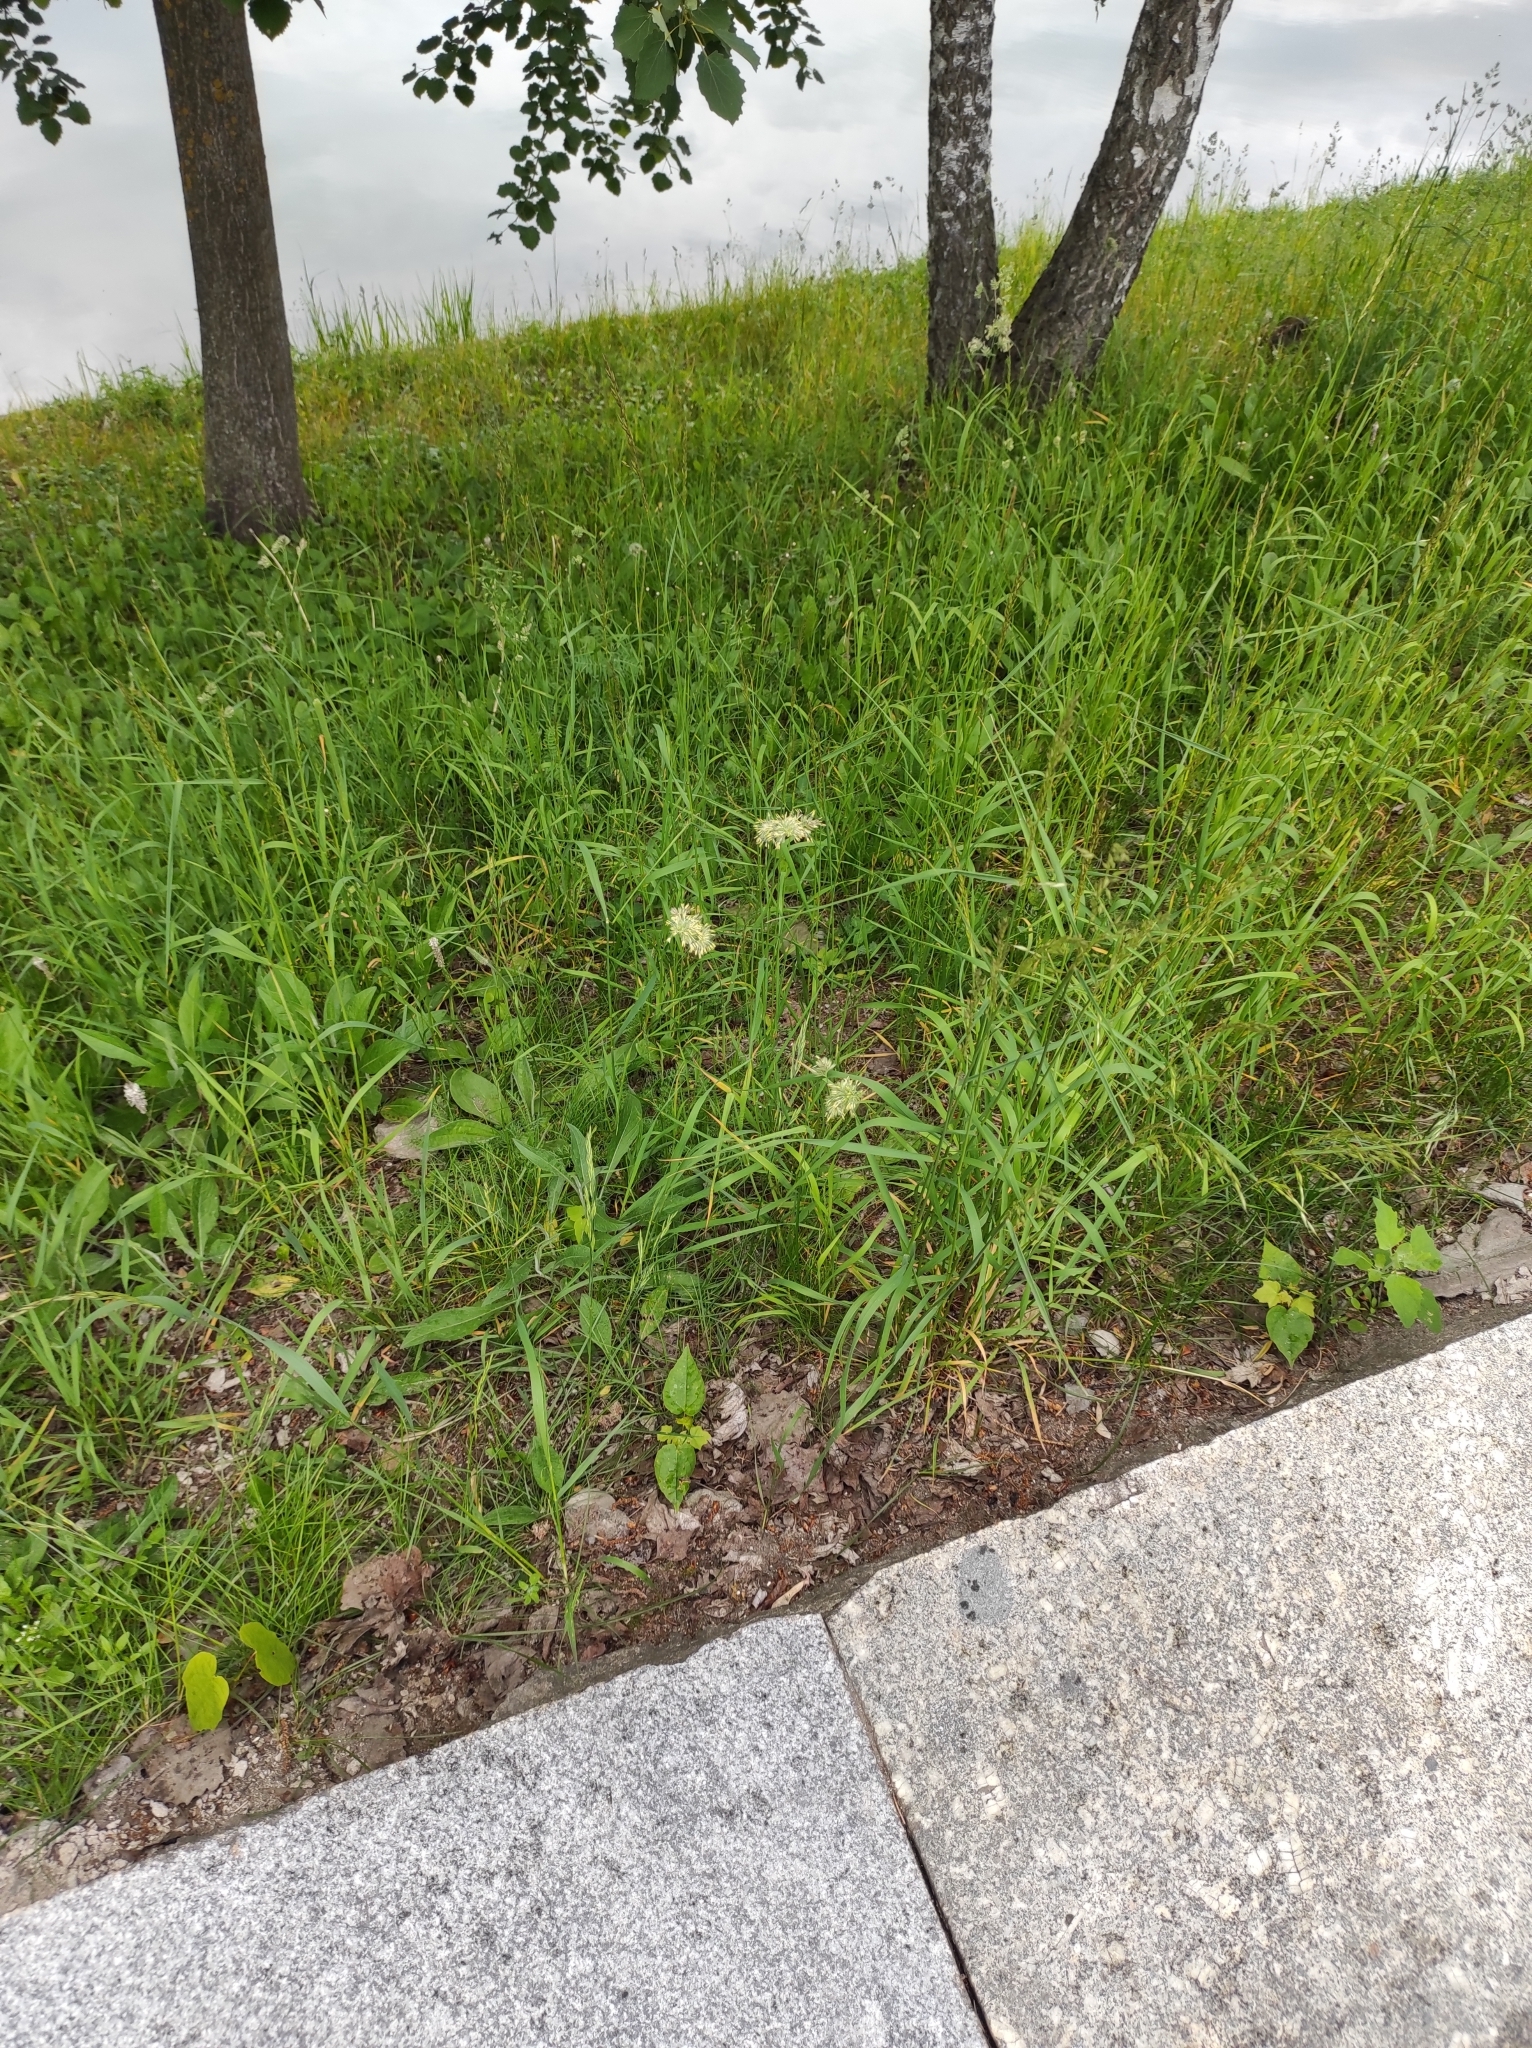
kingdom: Plantae
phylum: Tracheophyta
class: Liliopsida
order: Poales
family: Poaceae
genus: Dactylis
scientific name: Dactylis glomerata
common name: Orchardgrass
